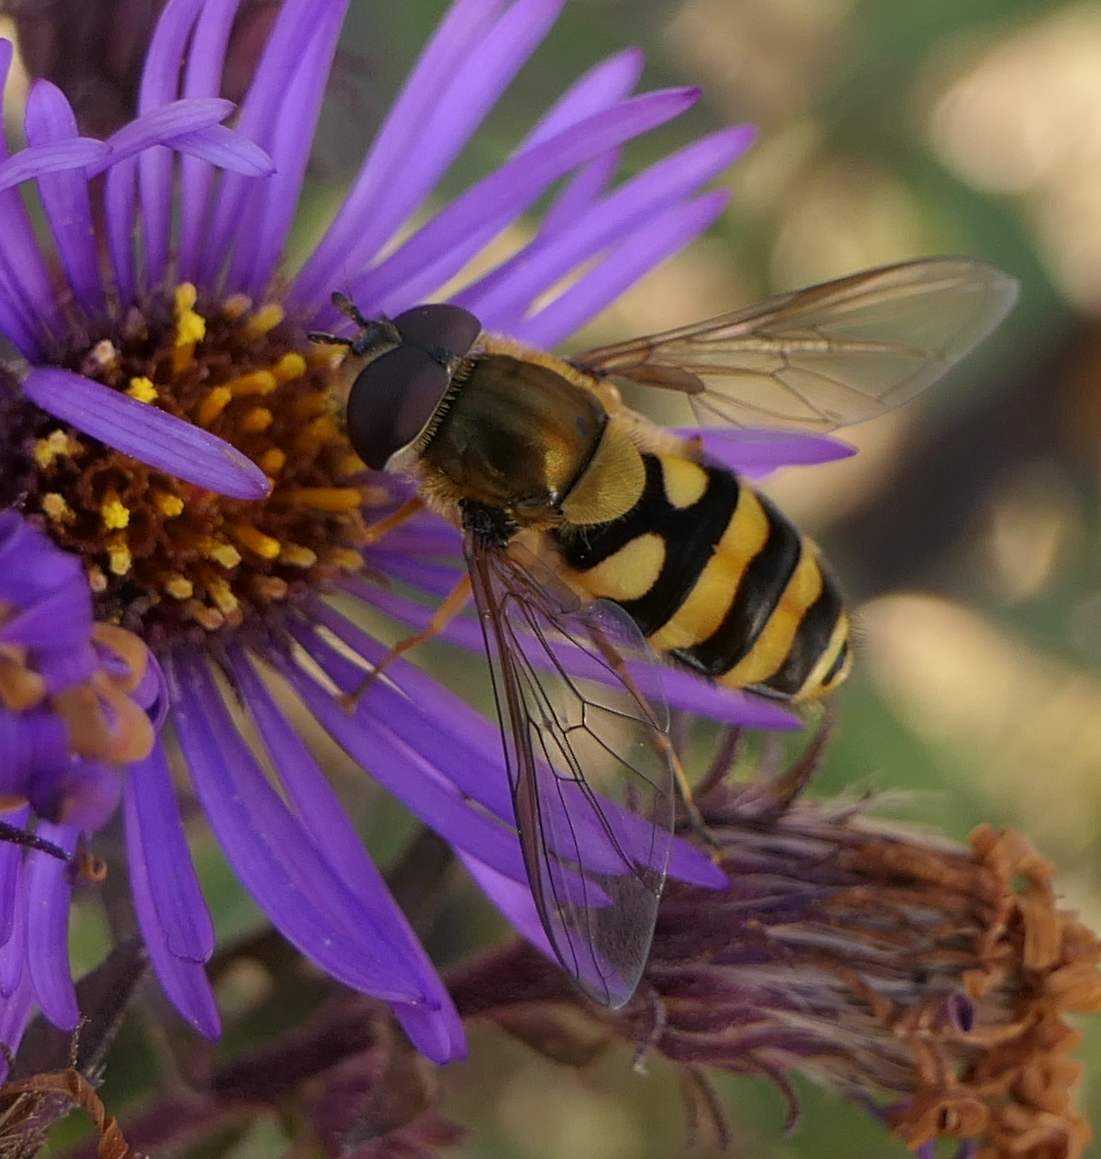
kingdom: Animalia
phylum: Arthropoda
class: Insecta
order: Diptera
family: Syrphidae
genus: Syrphus
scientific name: Syrphus
